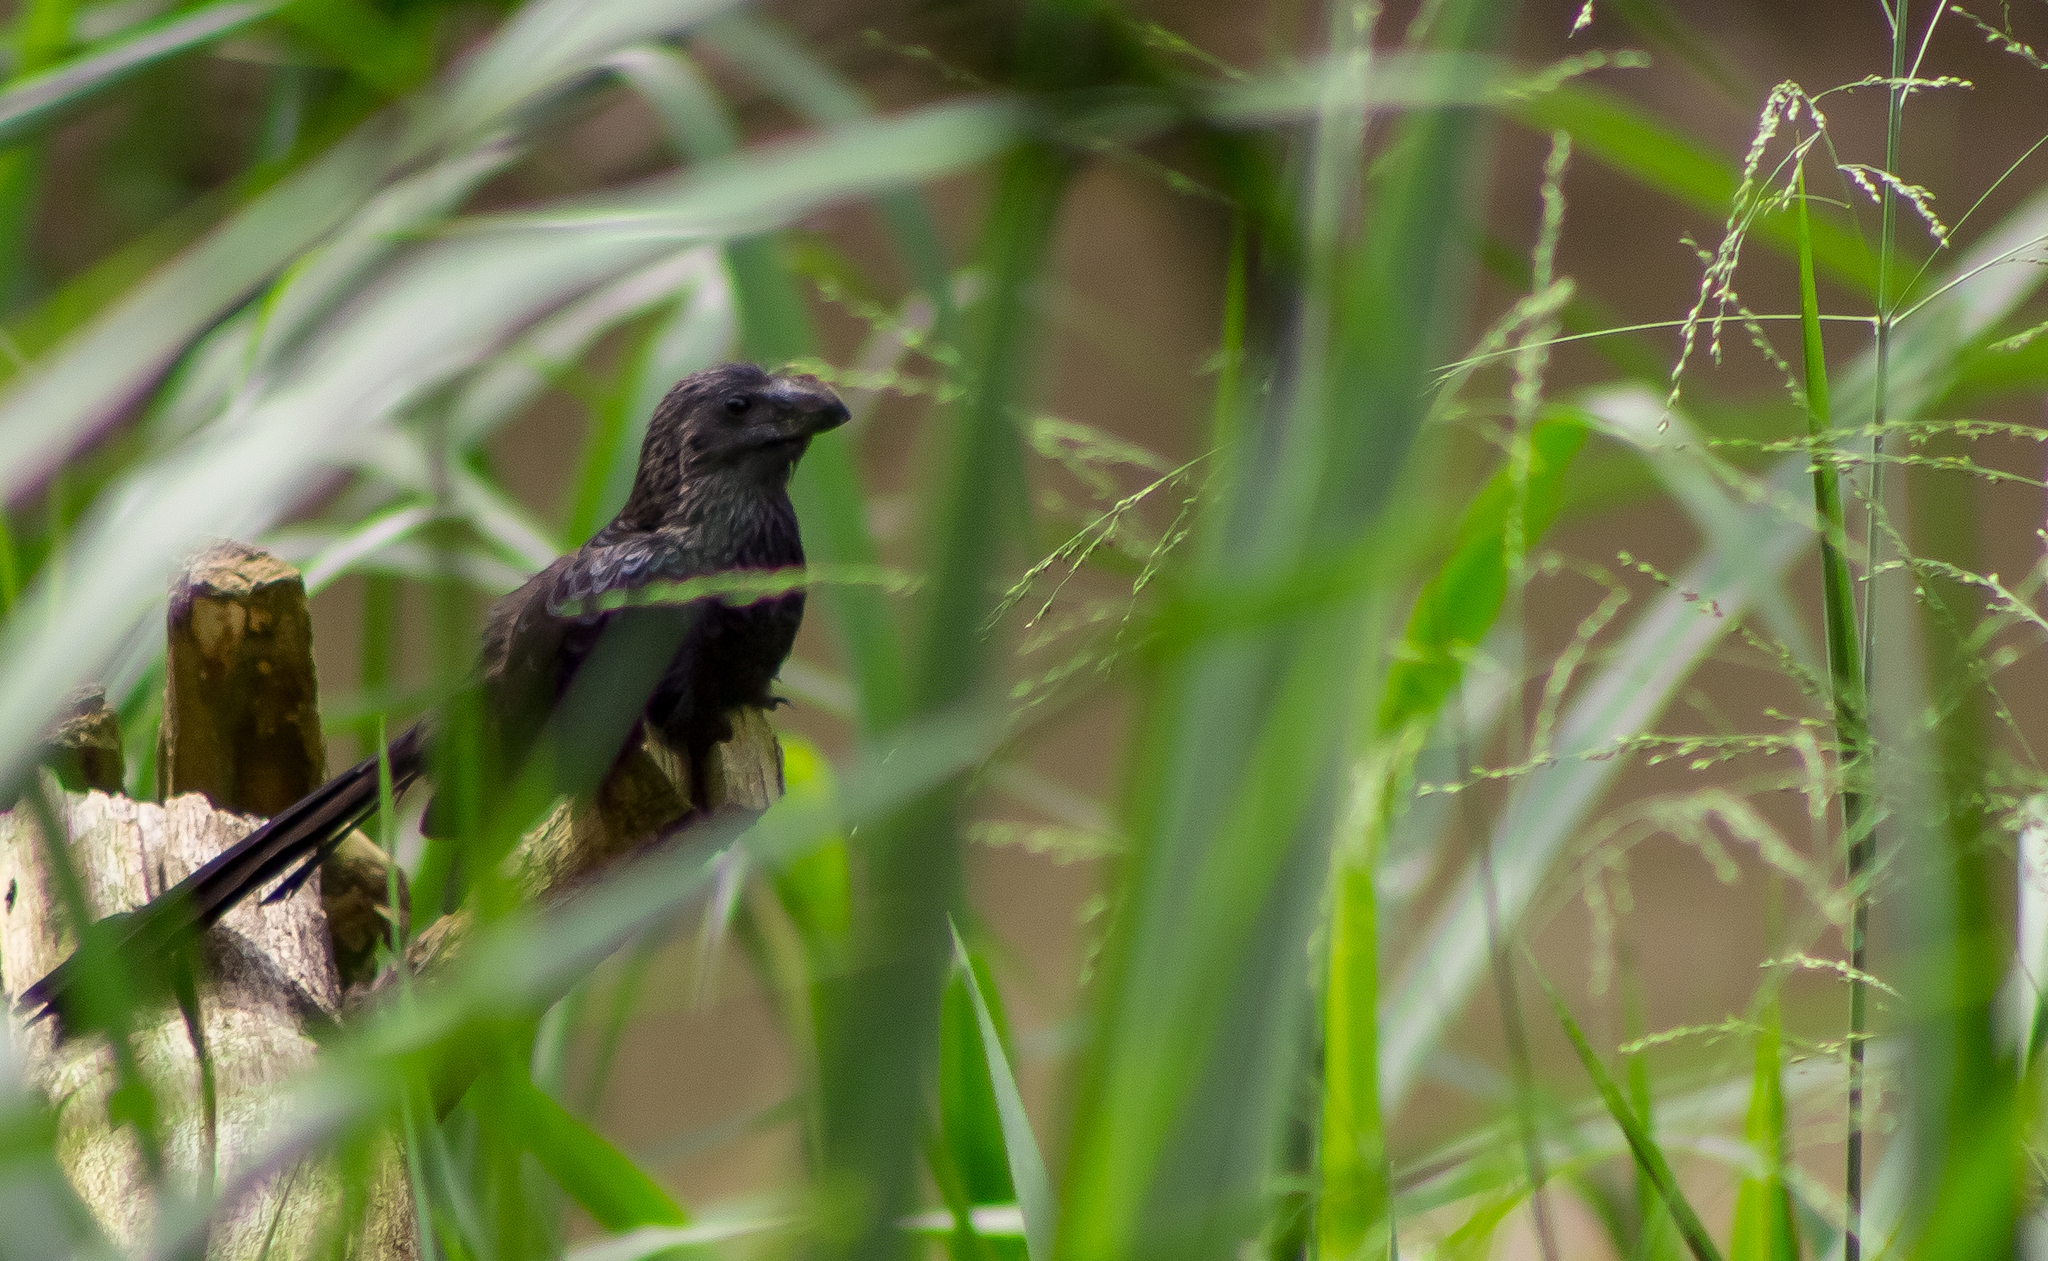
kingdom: Animalia
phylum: Chordata
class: Aves
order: Cuculiformes
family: Cuculidae
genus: Crotophaga
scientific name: Crotophaga ani
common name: Smooth-billed ani
